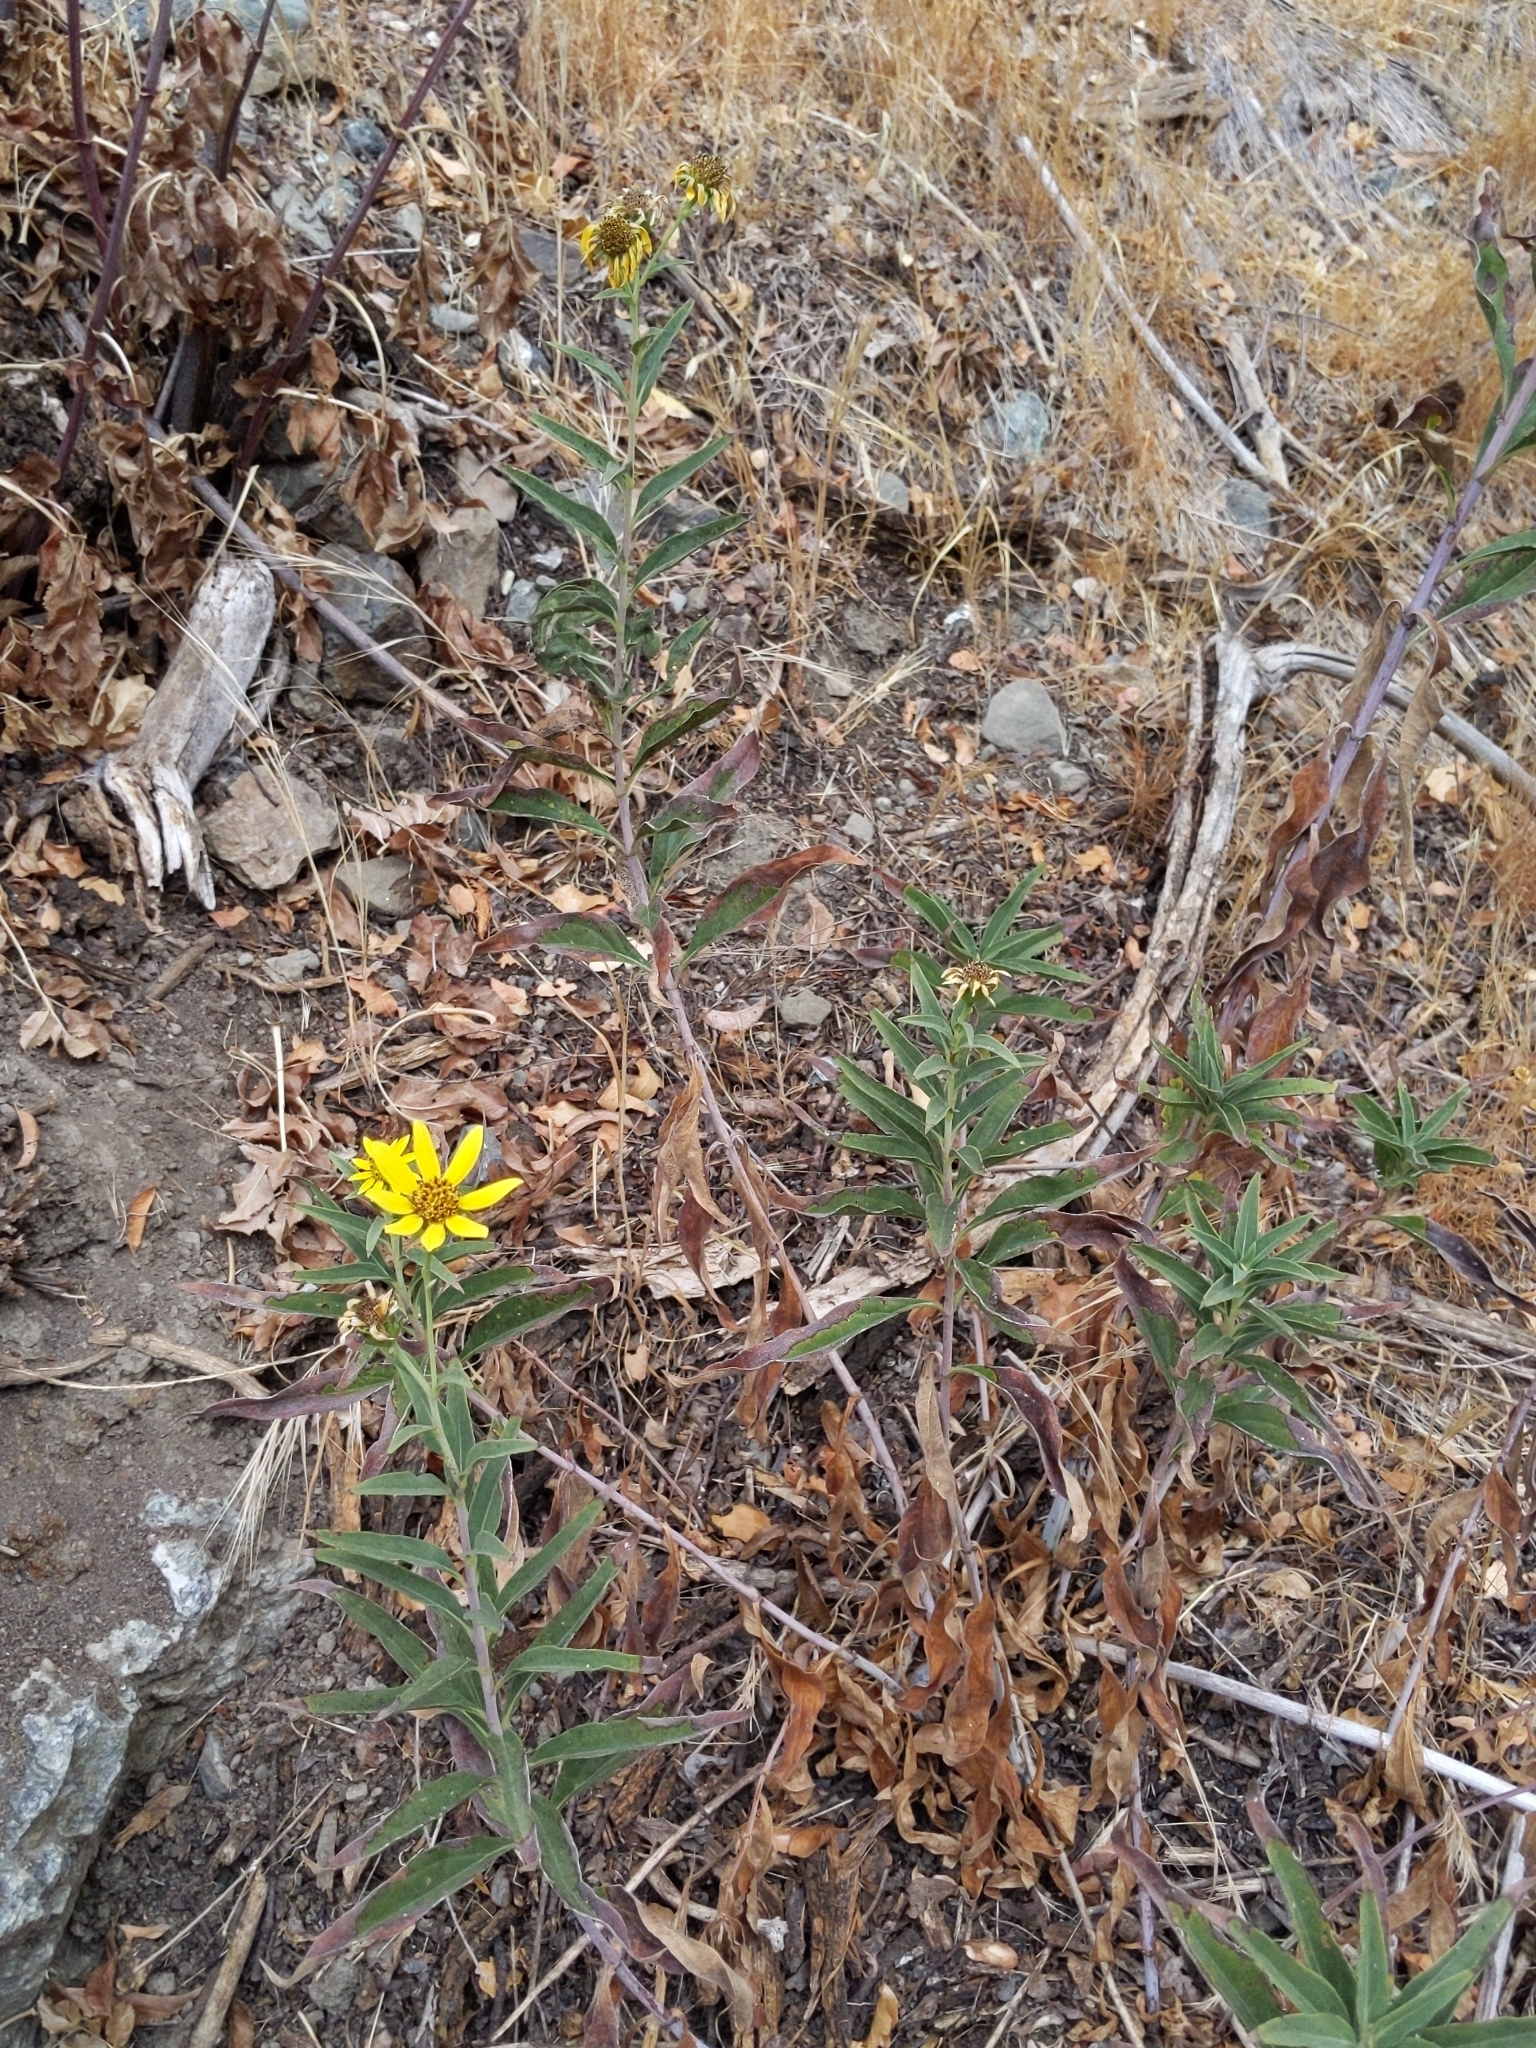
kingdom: Plantae
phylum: Tracheophyta
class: Magnoliopsida
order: Asterales
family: Asteraceae
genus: Helianthus
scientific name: Helianthus californicus
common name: California sunflower
